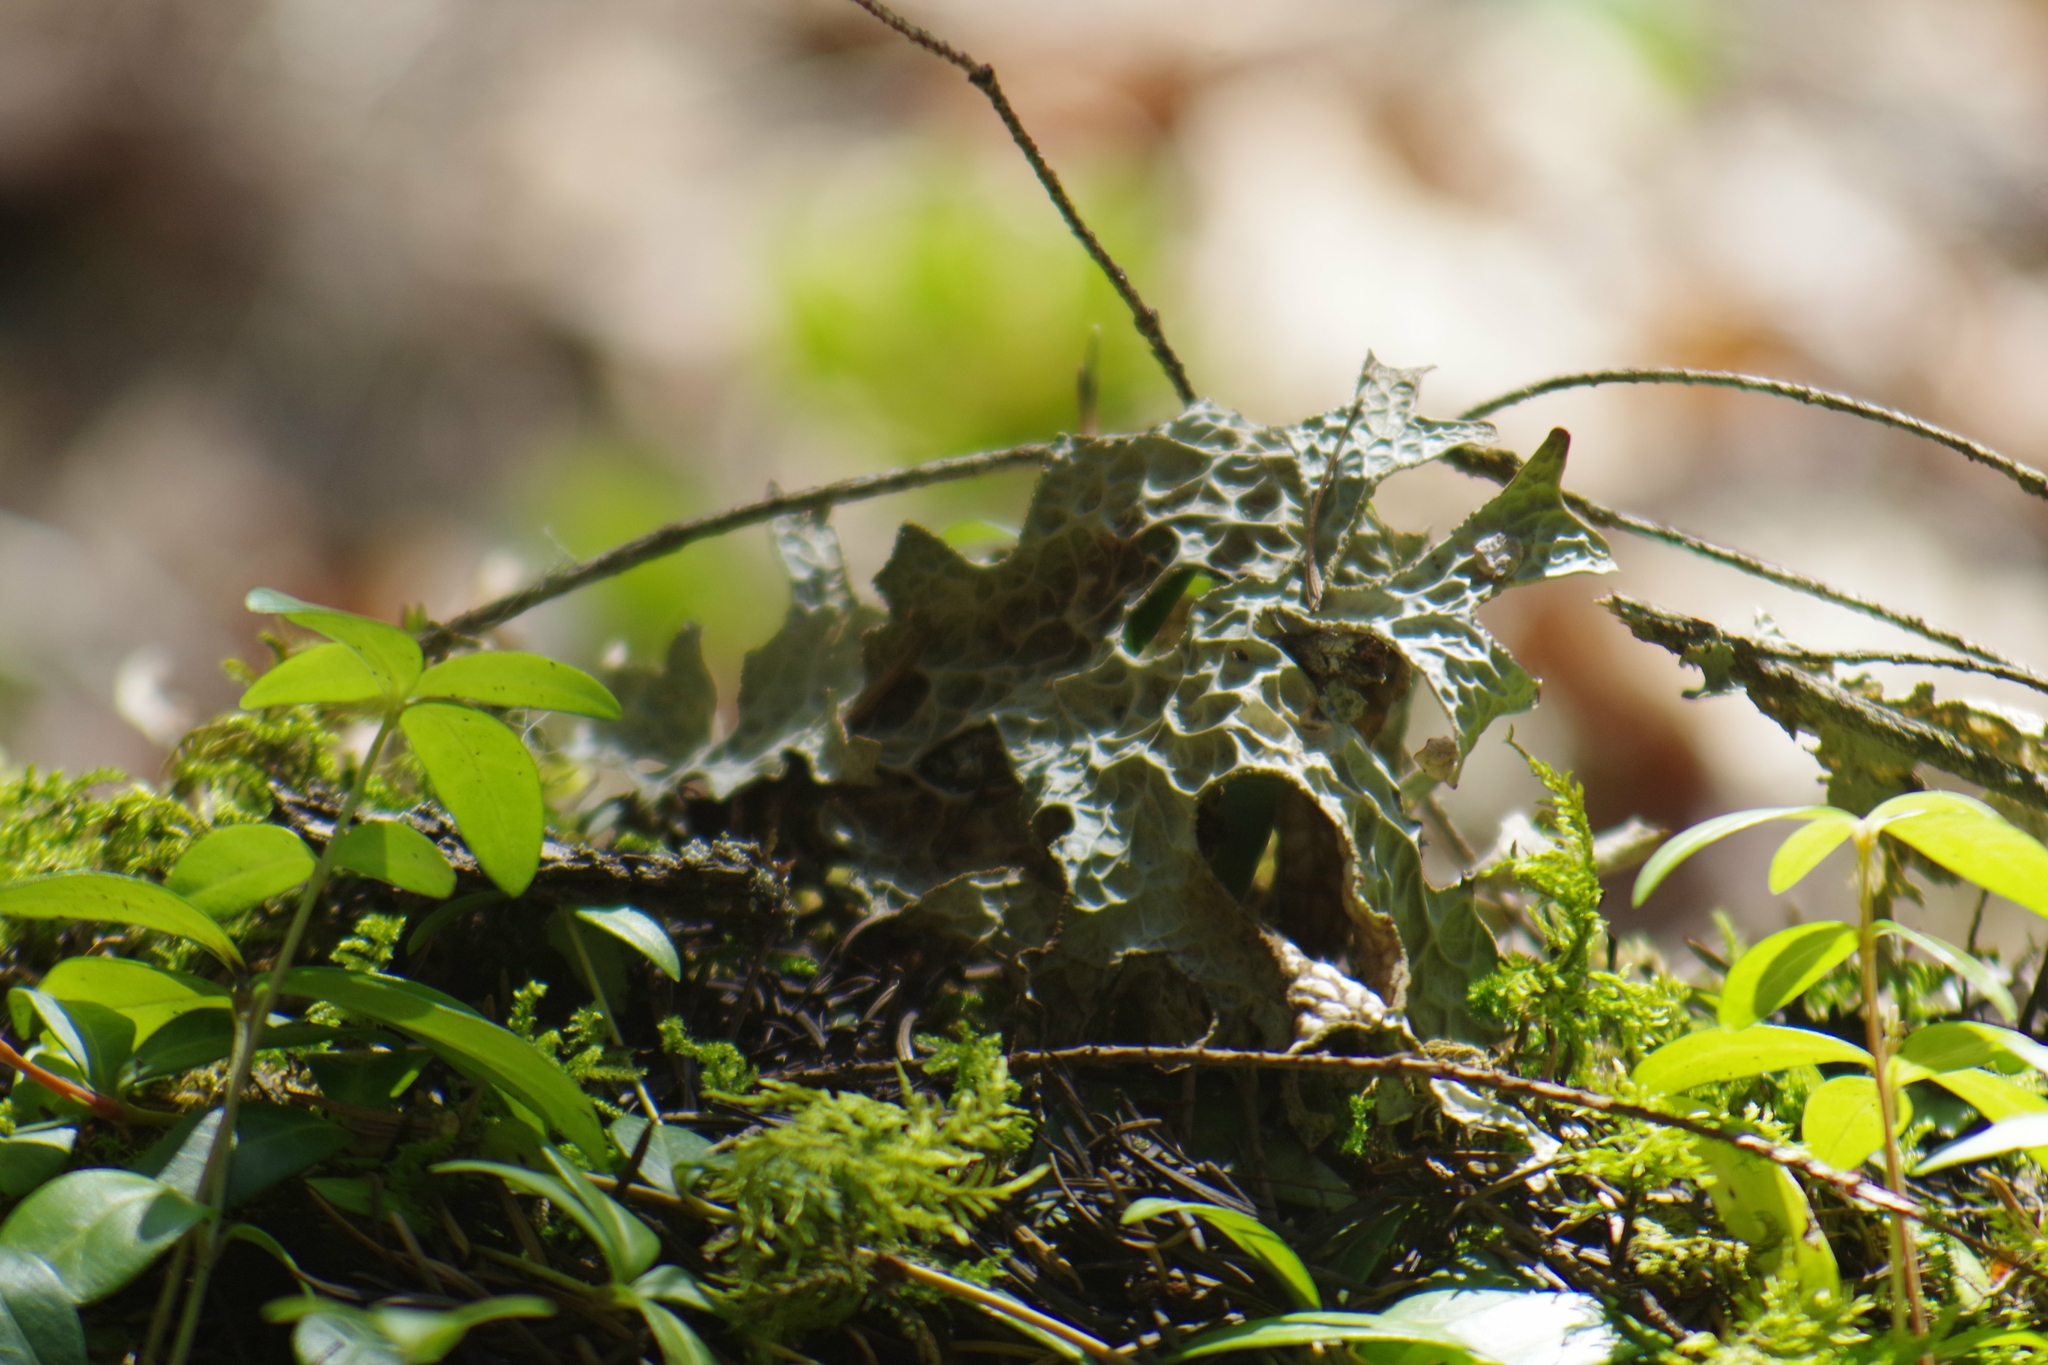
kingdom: Fungi
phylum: Ascomycota
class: Lecanoromycetes
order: Peltigerales
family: Lobariaceae
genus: Lobaria
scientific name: Lobaria pulmonaria
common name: Lungwort
